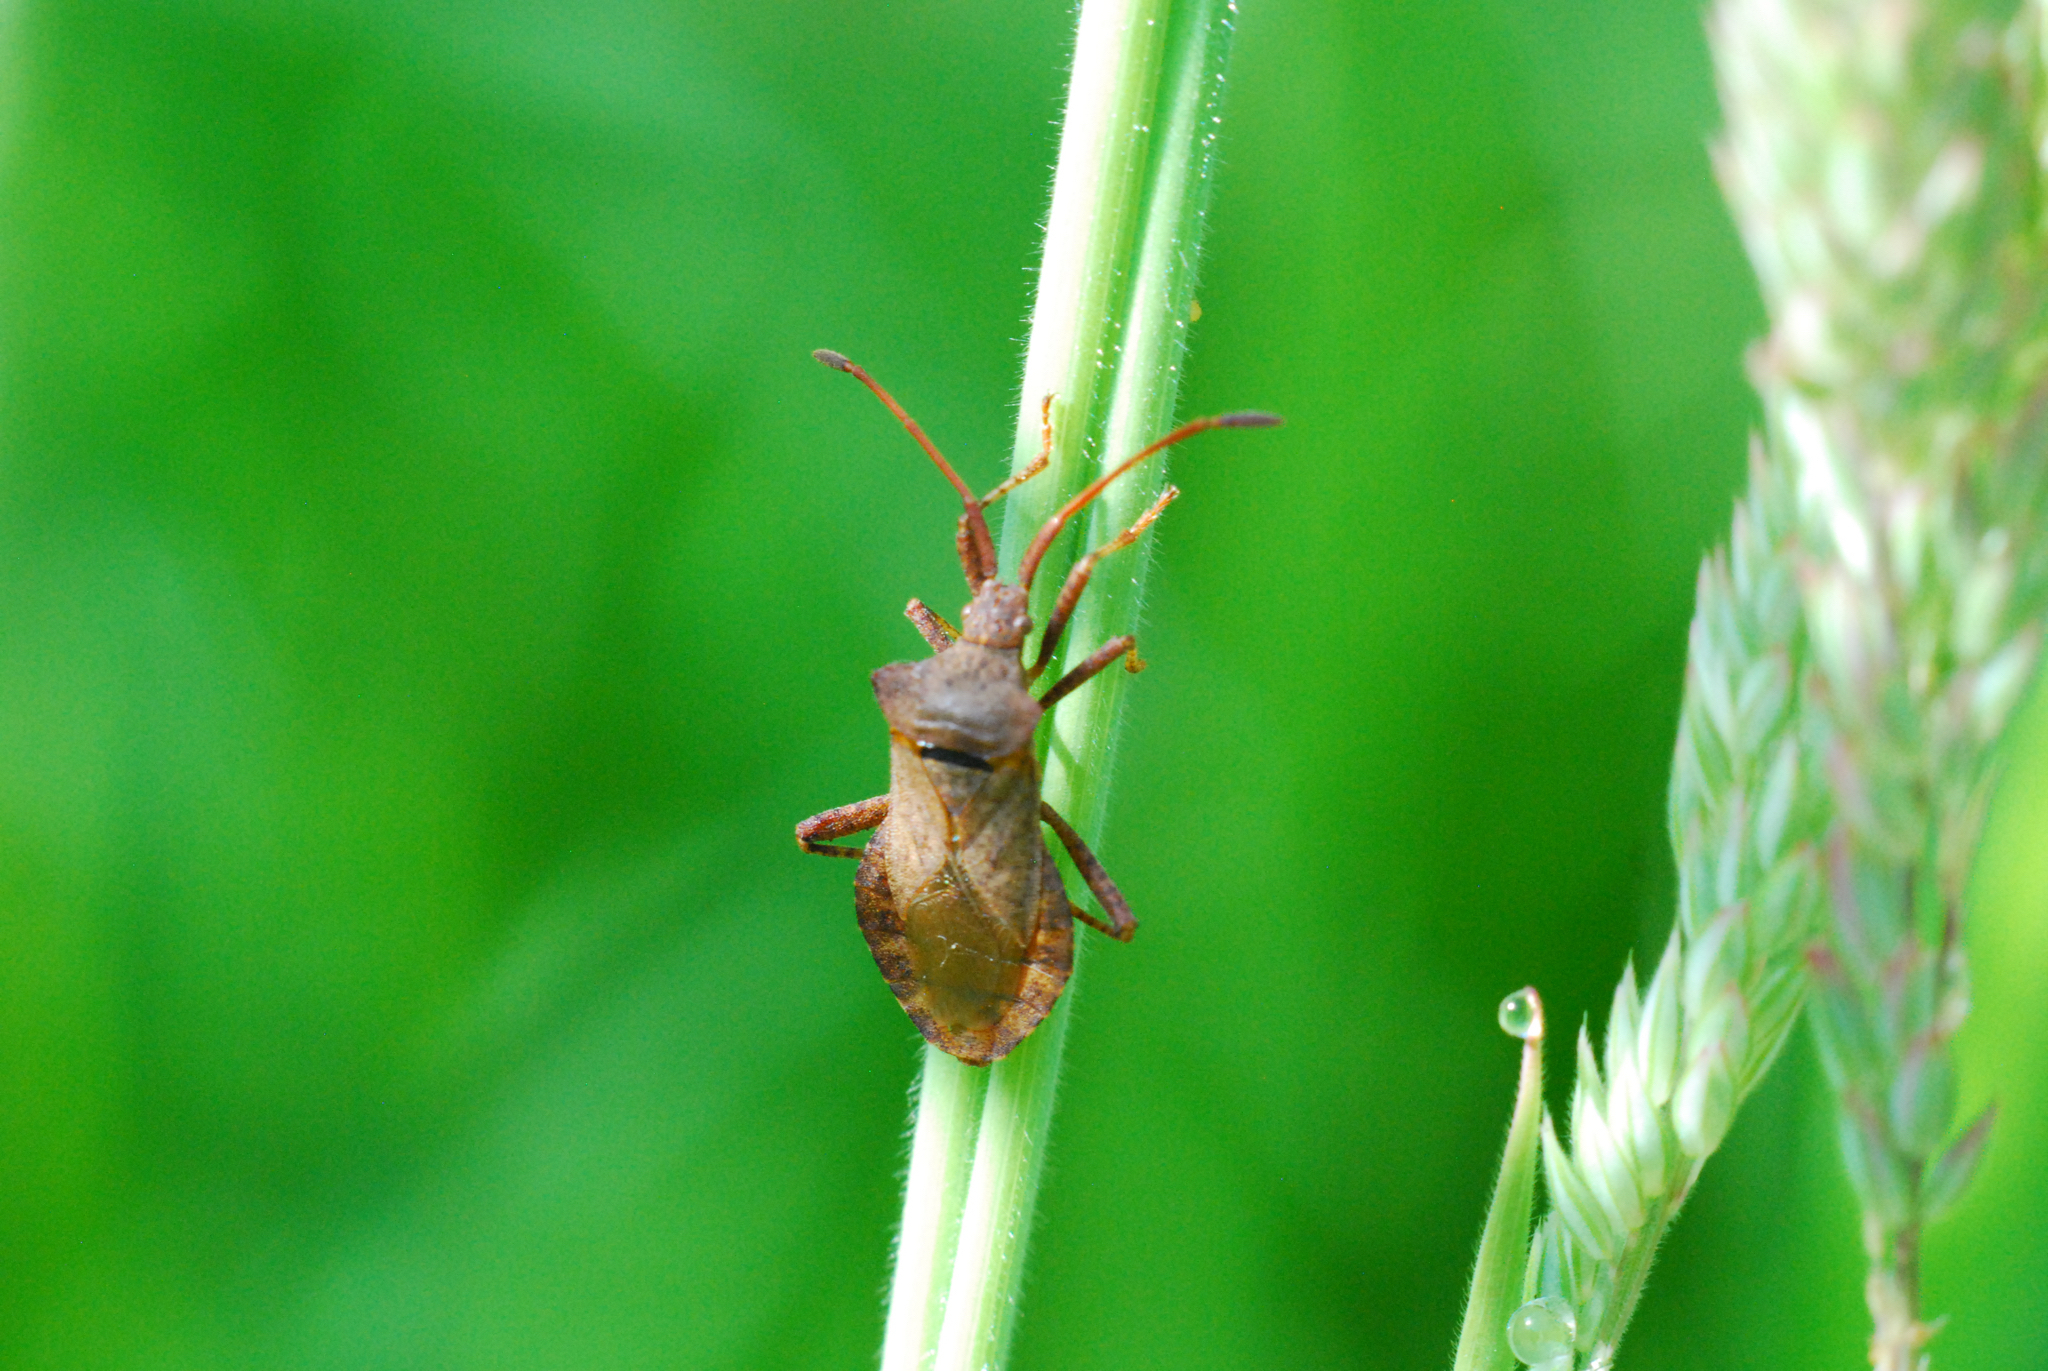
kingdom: Animalia
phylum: Arthropoda
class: Insecta
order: Hemiptera
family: Coreidae
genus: Coreus
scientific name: Coreus marginatus
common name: Dock bug
